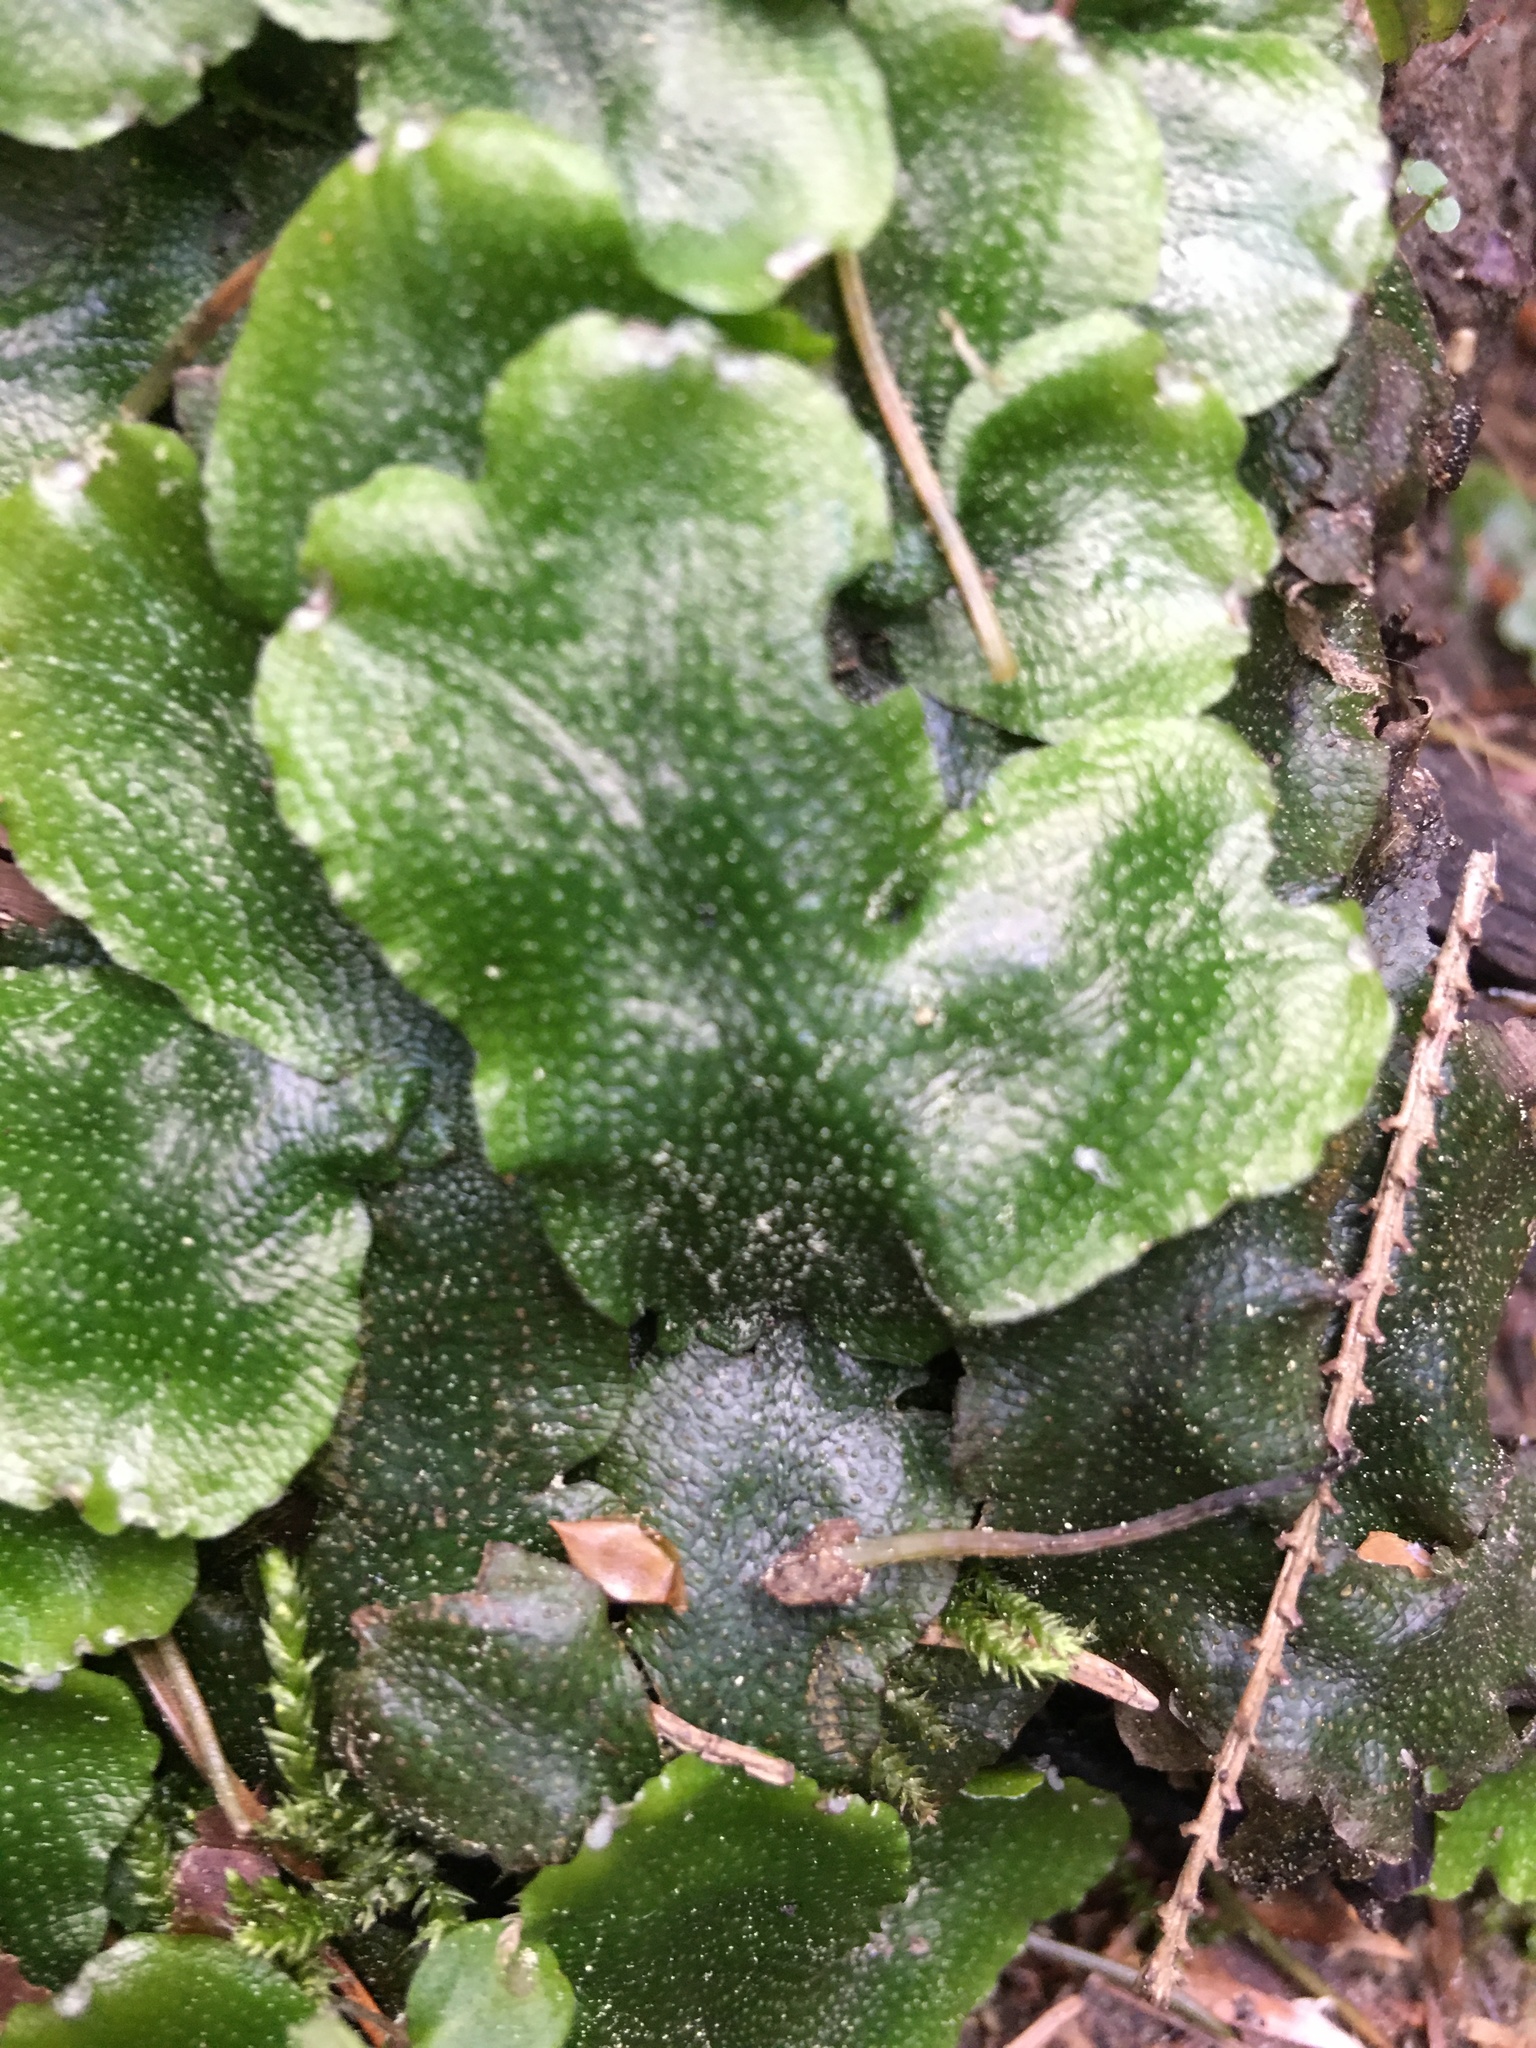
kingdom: Plantae
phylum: Marchantiophyta
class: Marchantiopsida
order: Marchantiales
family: Conocephalaceae
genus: Conocephalum
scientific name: Conocephalum conicum
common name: Great scented liverwort
